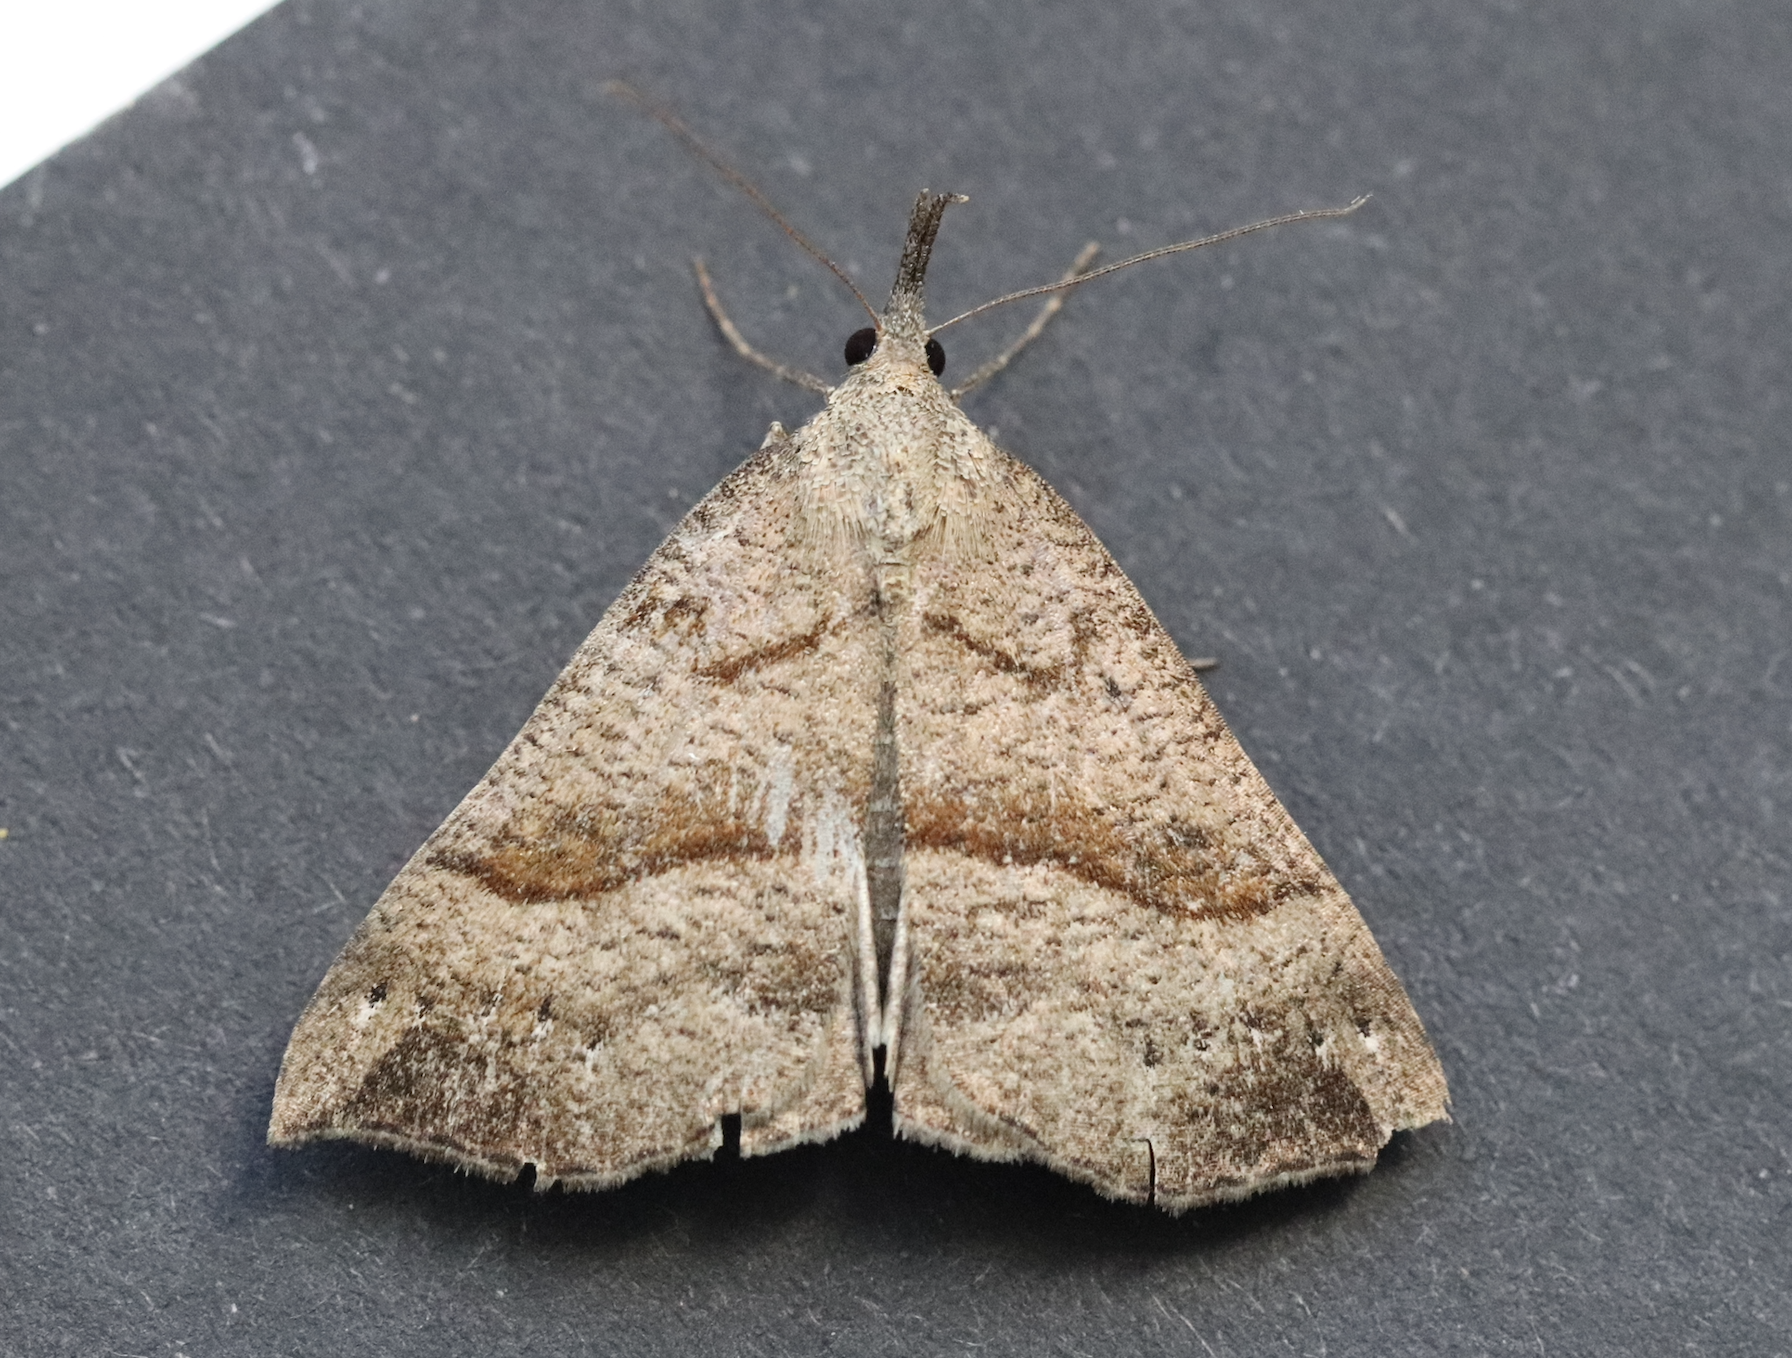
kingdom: Animalia
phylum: Arthropoda
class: Insecta
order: Lepidoptera
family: Erebidae
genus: Hypena
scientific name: Hypena proboscidalis
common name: Snout
